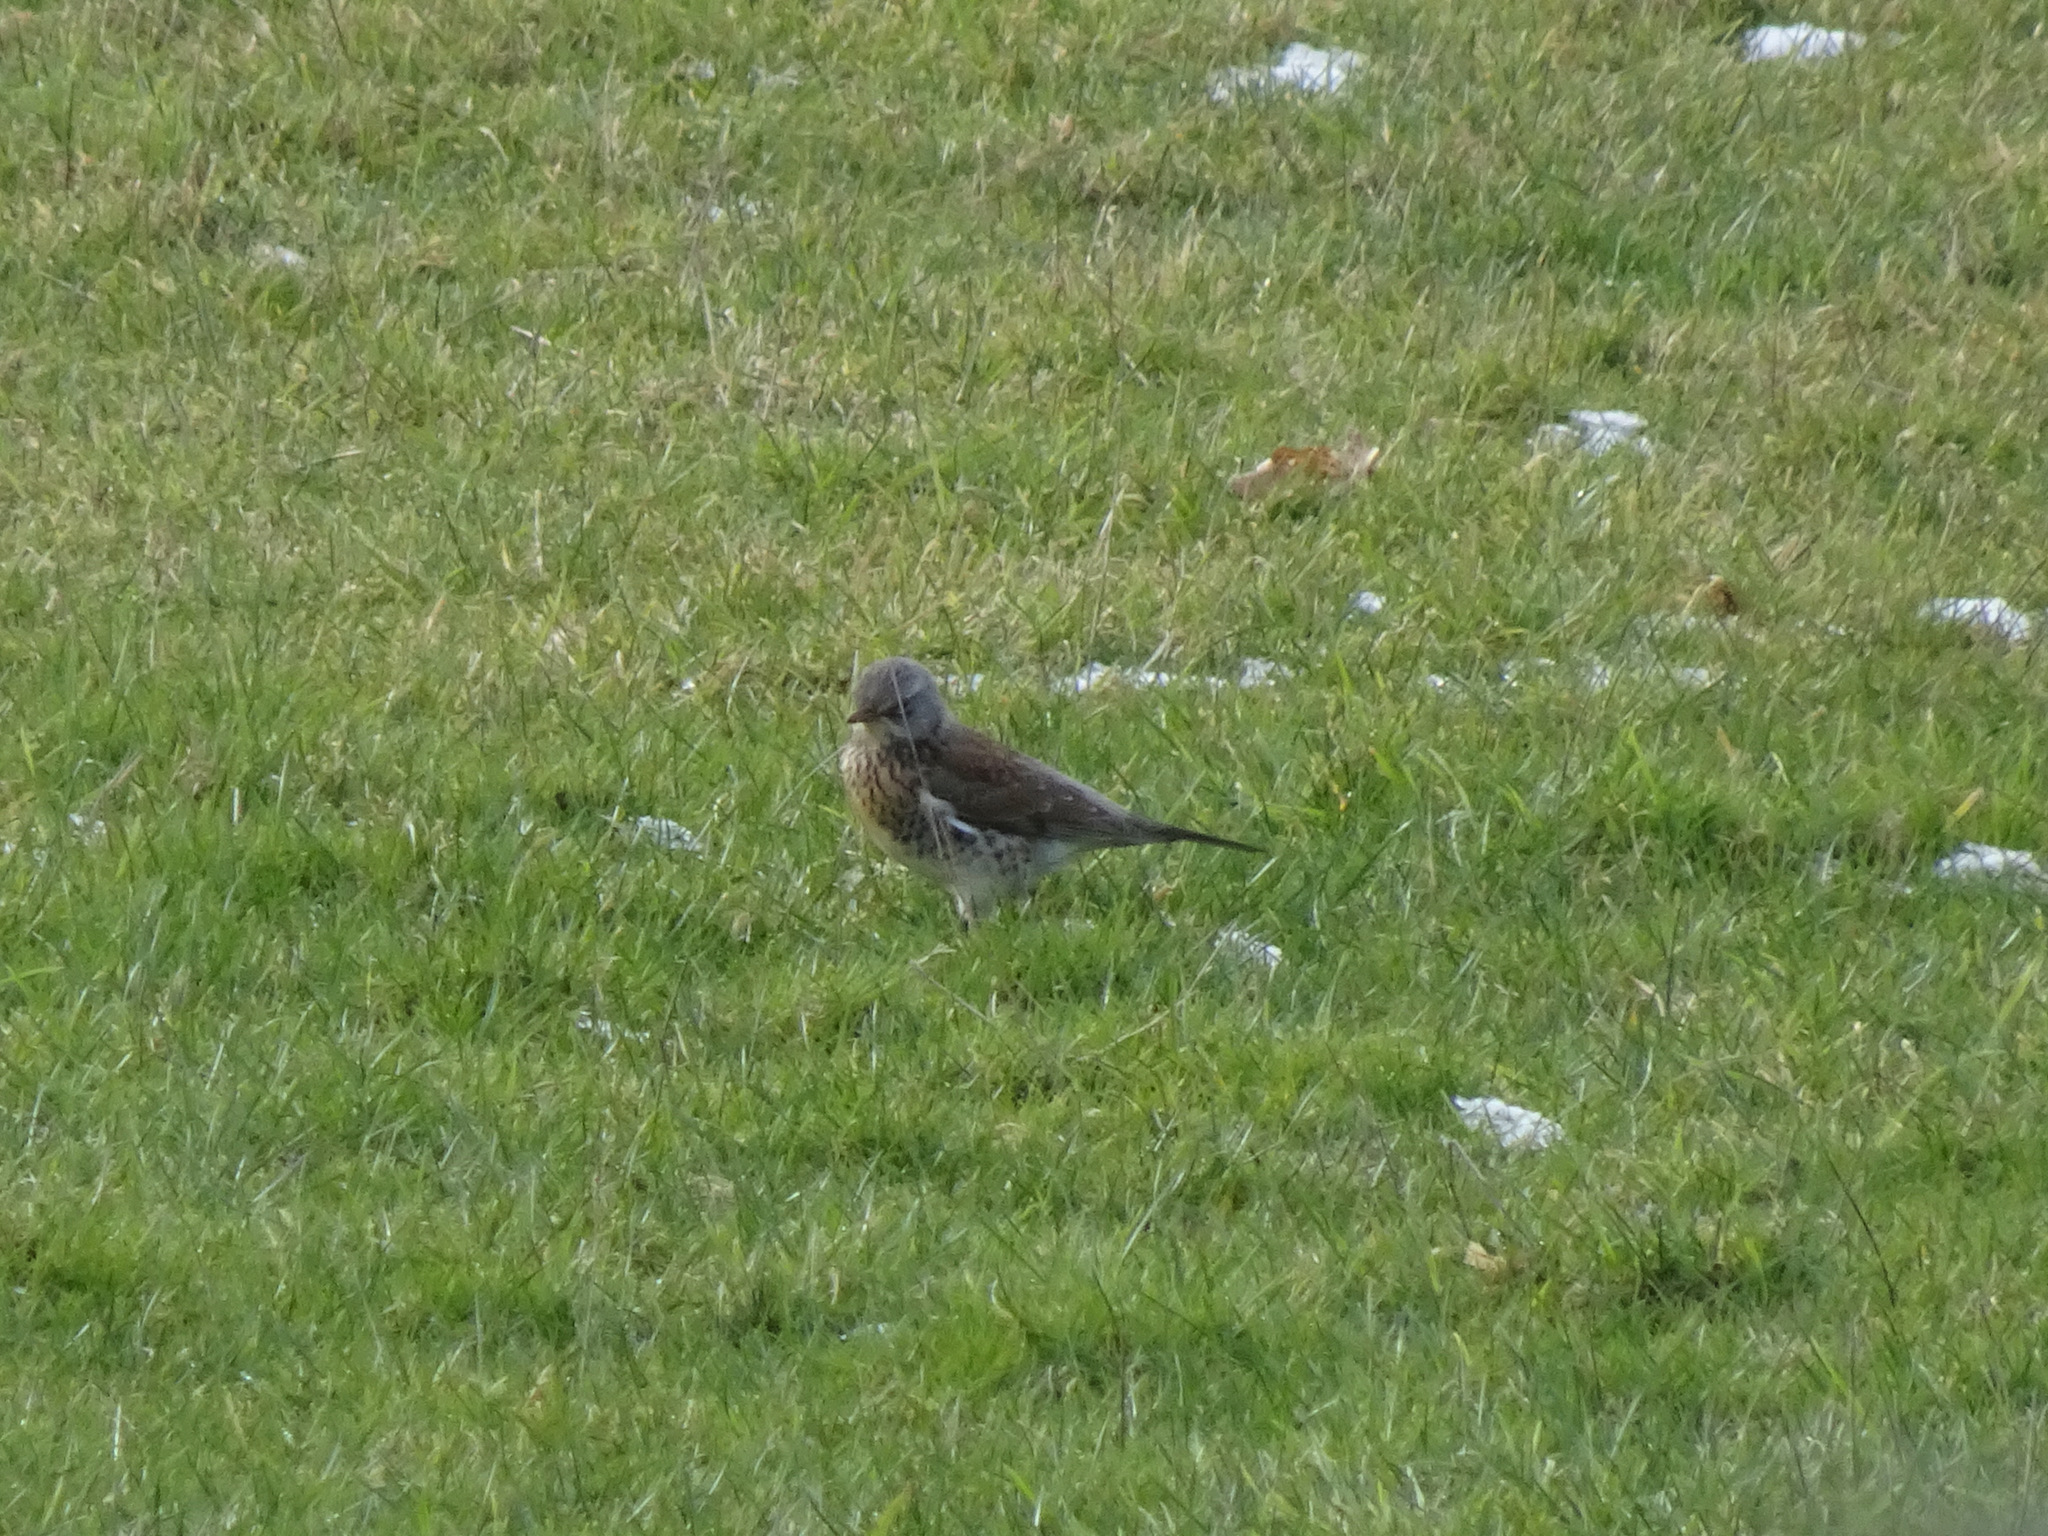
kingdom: Animalia
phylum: Chordata
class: Aves
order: Passeriformes
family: Turdidae
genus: Turdus
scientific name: Turdus pilaris
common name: Fieldfare
